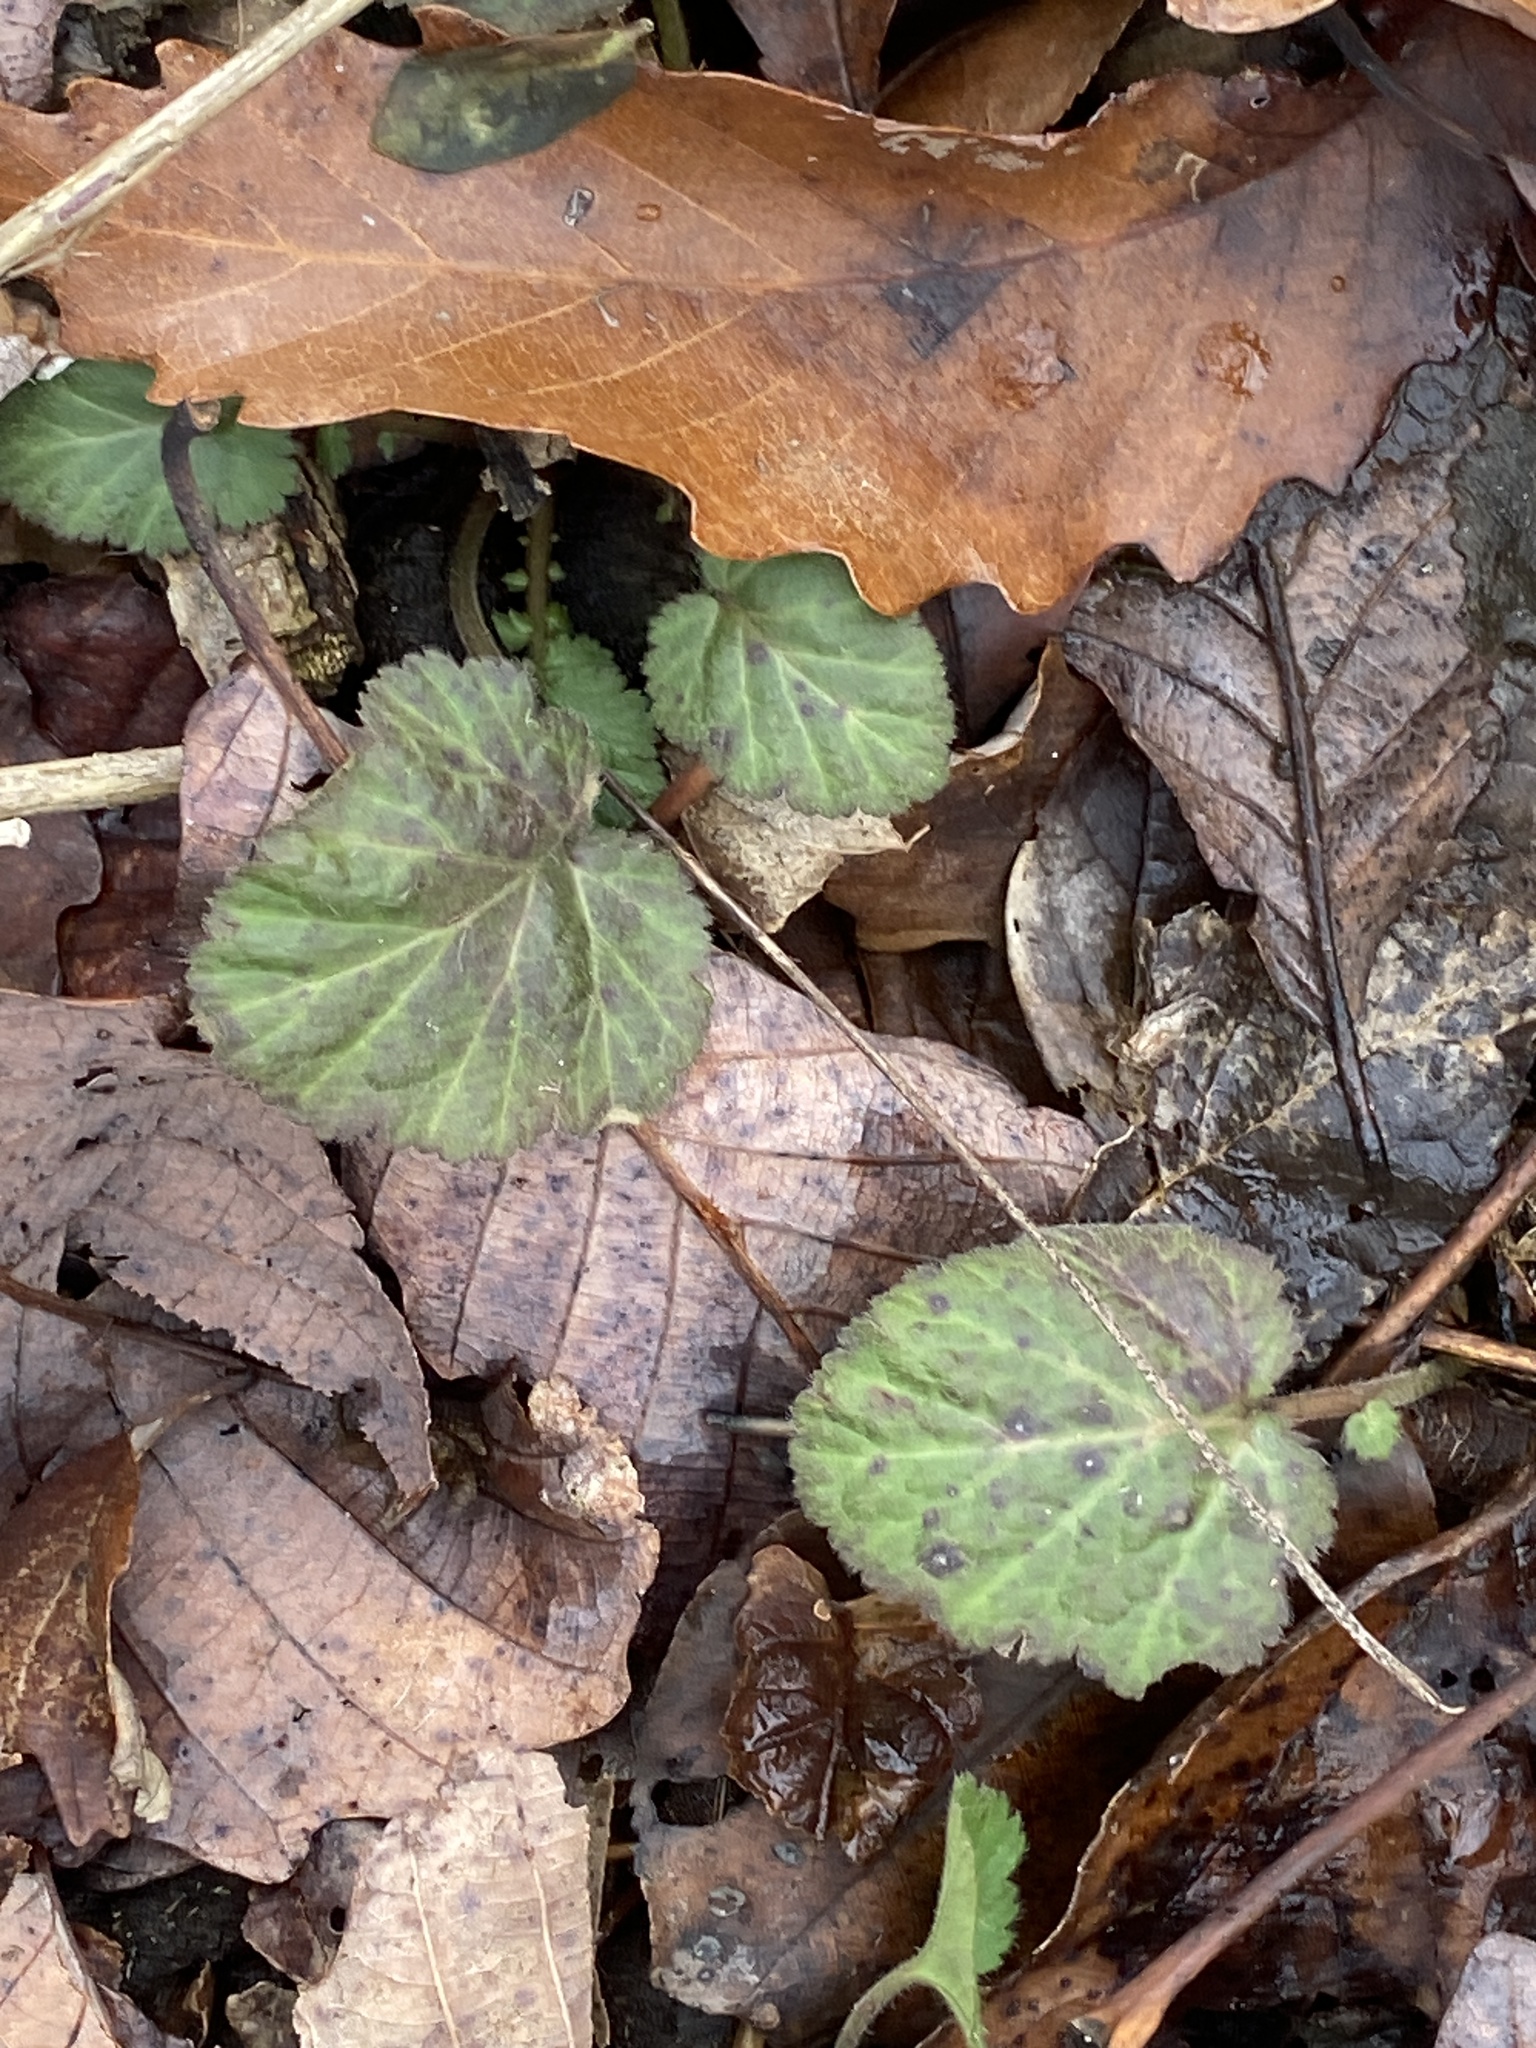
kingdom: Plantae
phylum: Tracheophyta
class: Magnoliopsida
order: Rosales
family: Rosaceae
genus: Geum
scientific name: Geum canadense
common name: White avens
